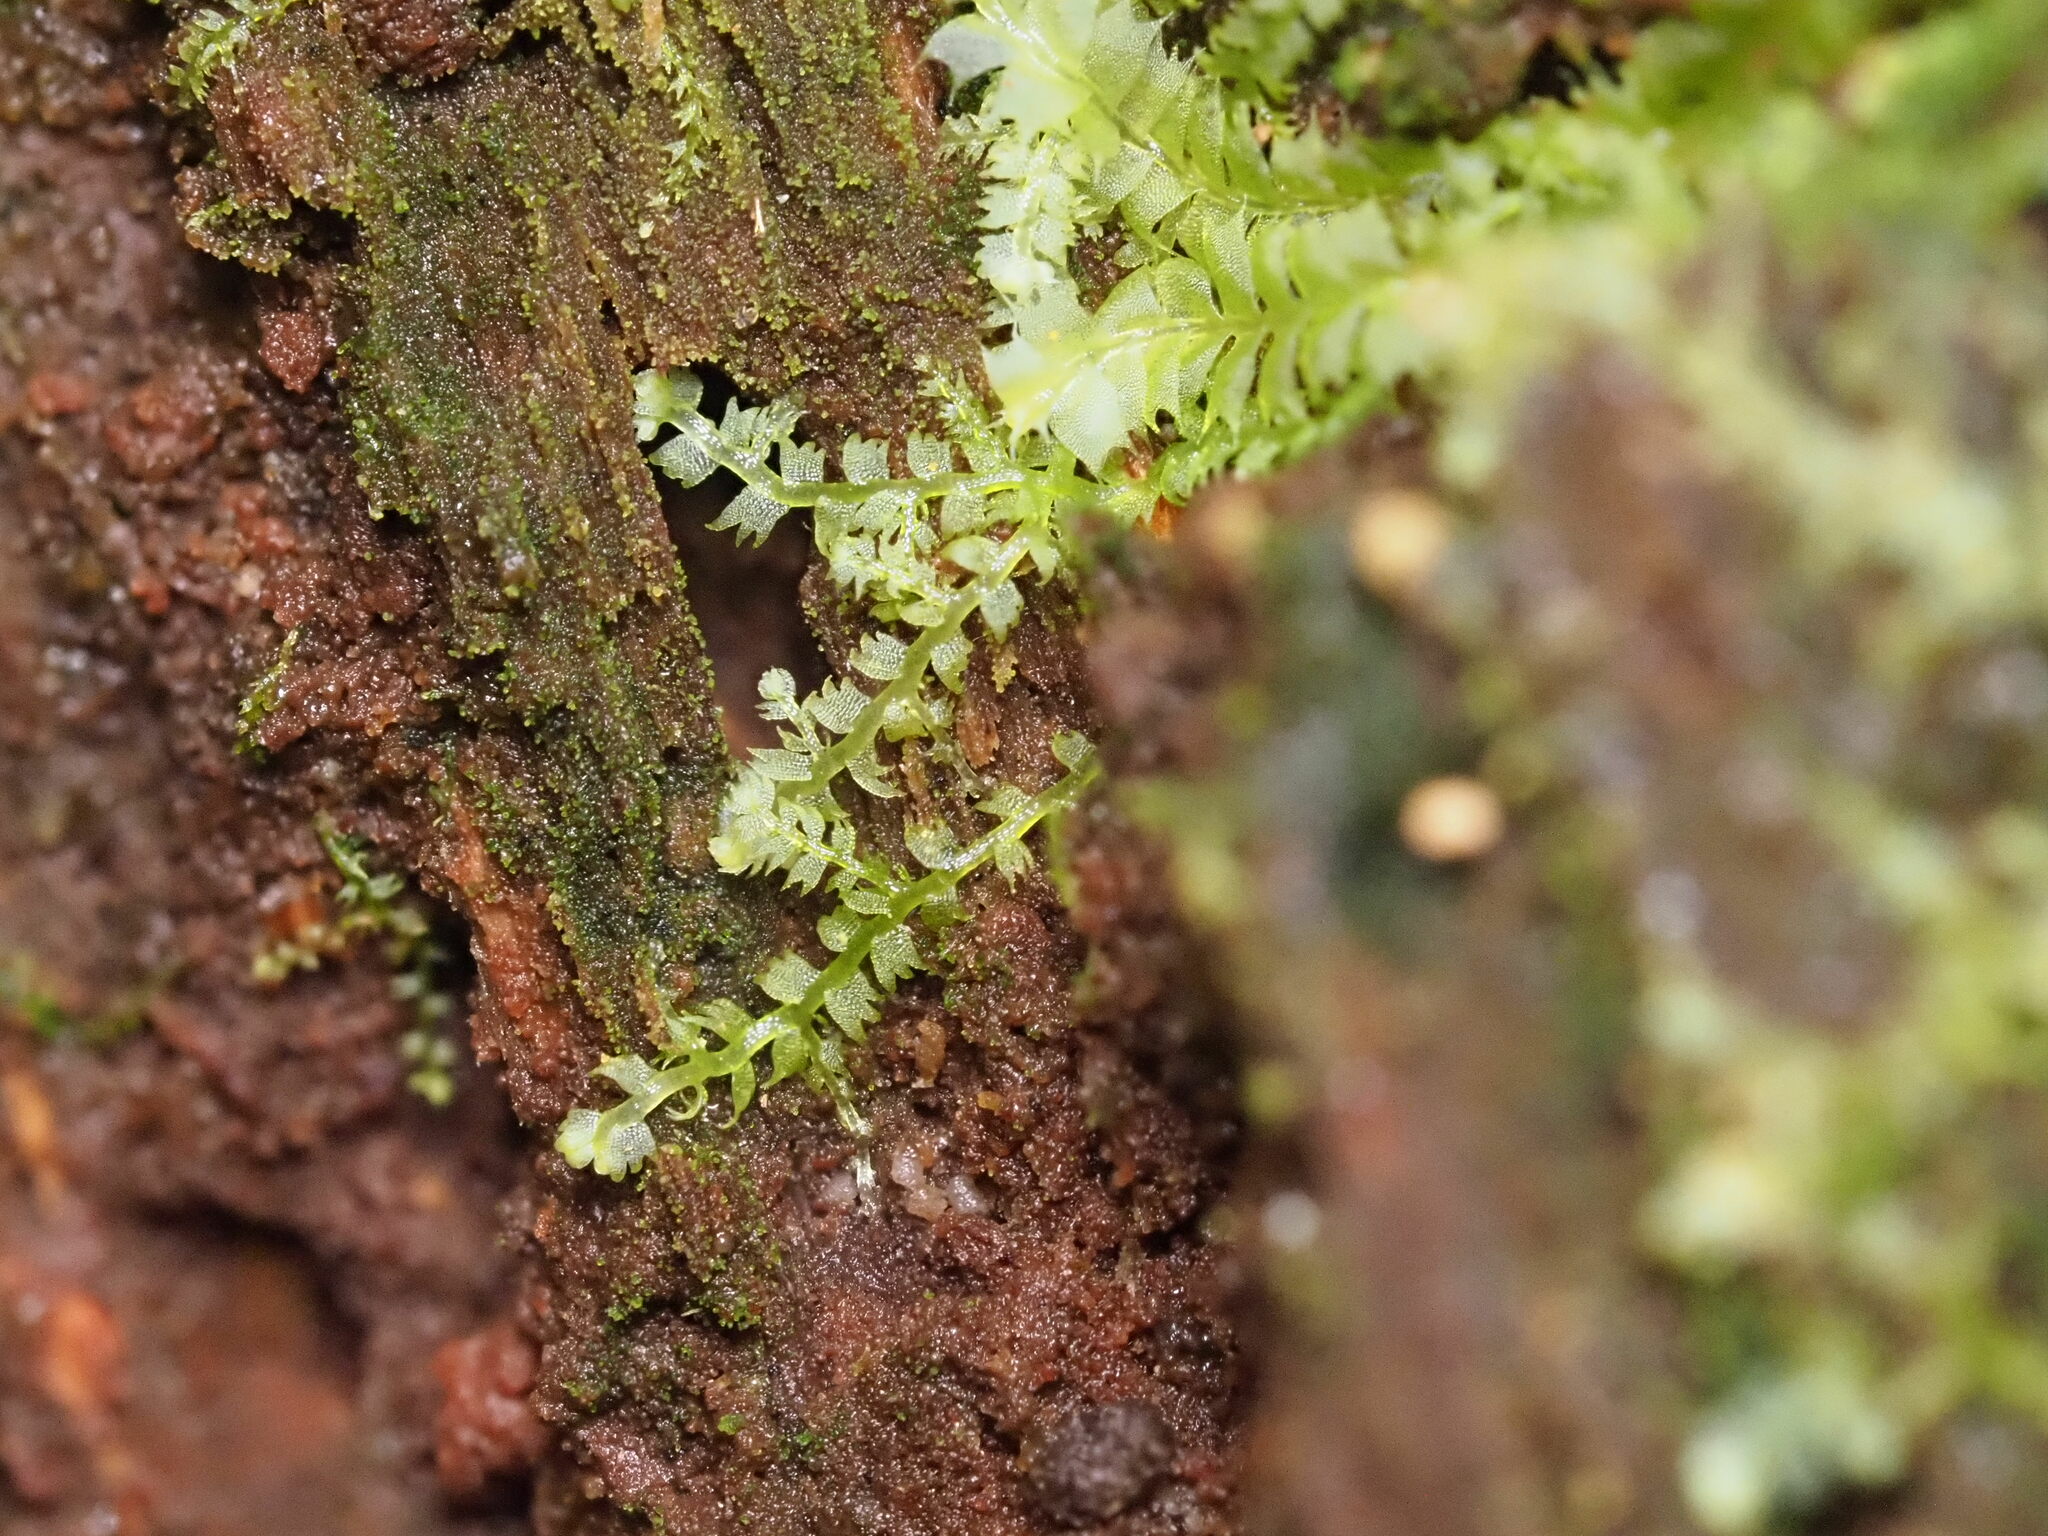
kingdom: Plantae
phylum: Marchantiophyta
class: Jungermanniopsida
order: Jungermanniales
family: Lepidoziaceae
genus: Lepidozia
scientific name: Lepidozia australis
